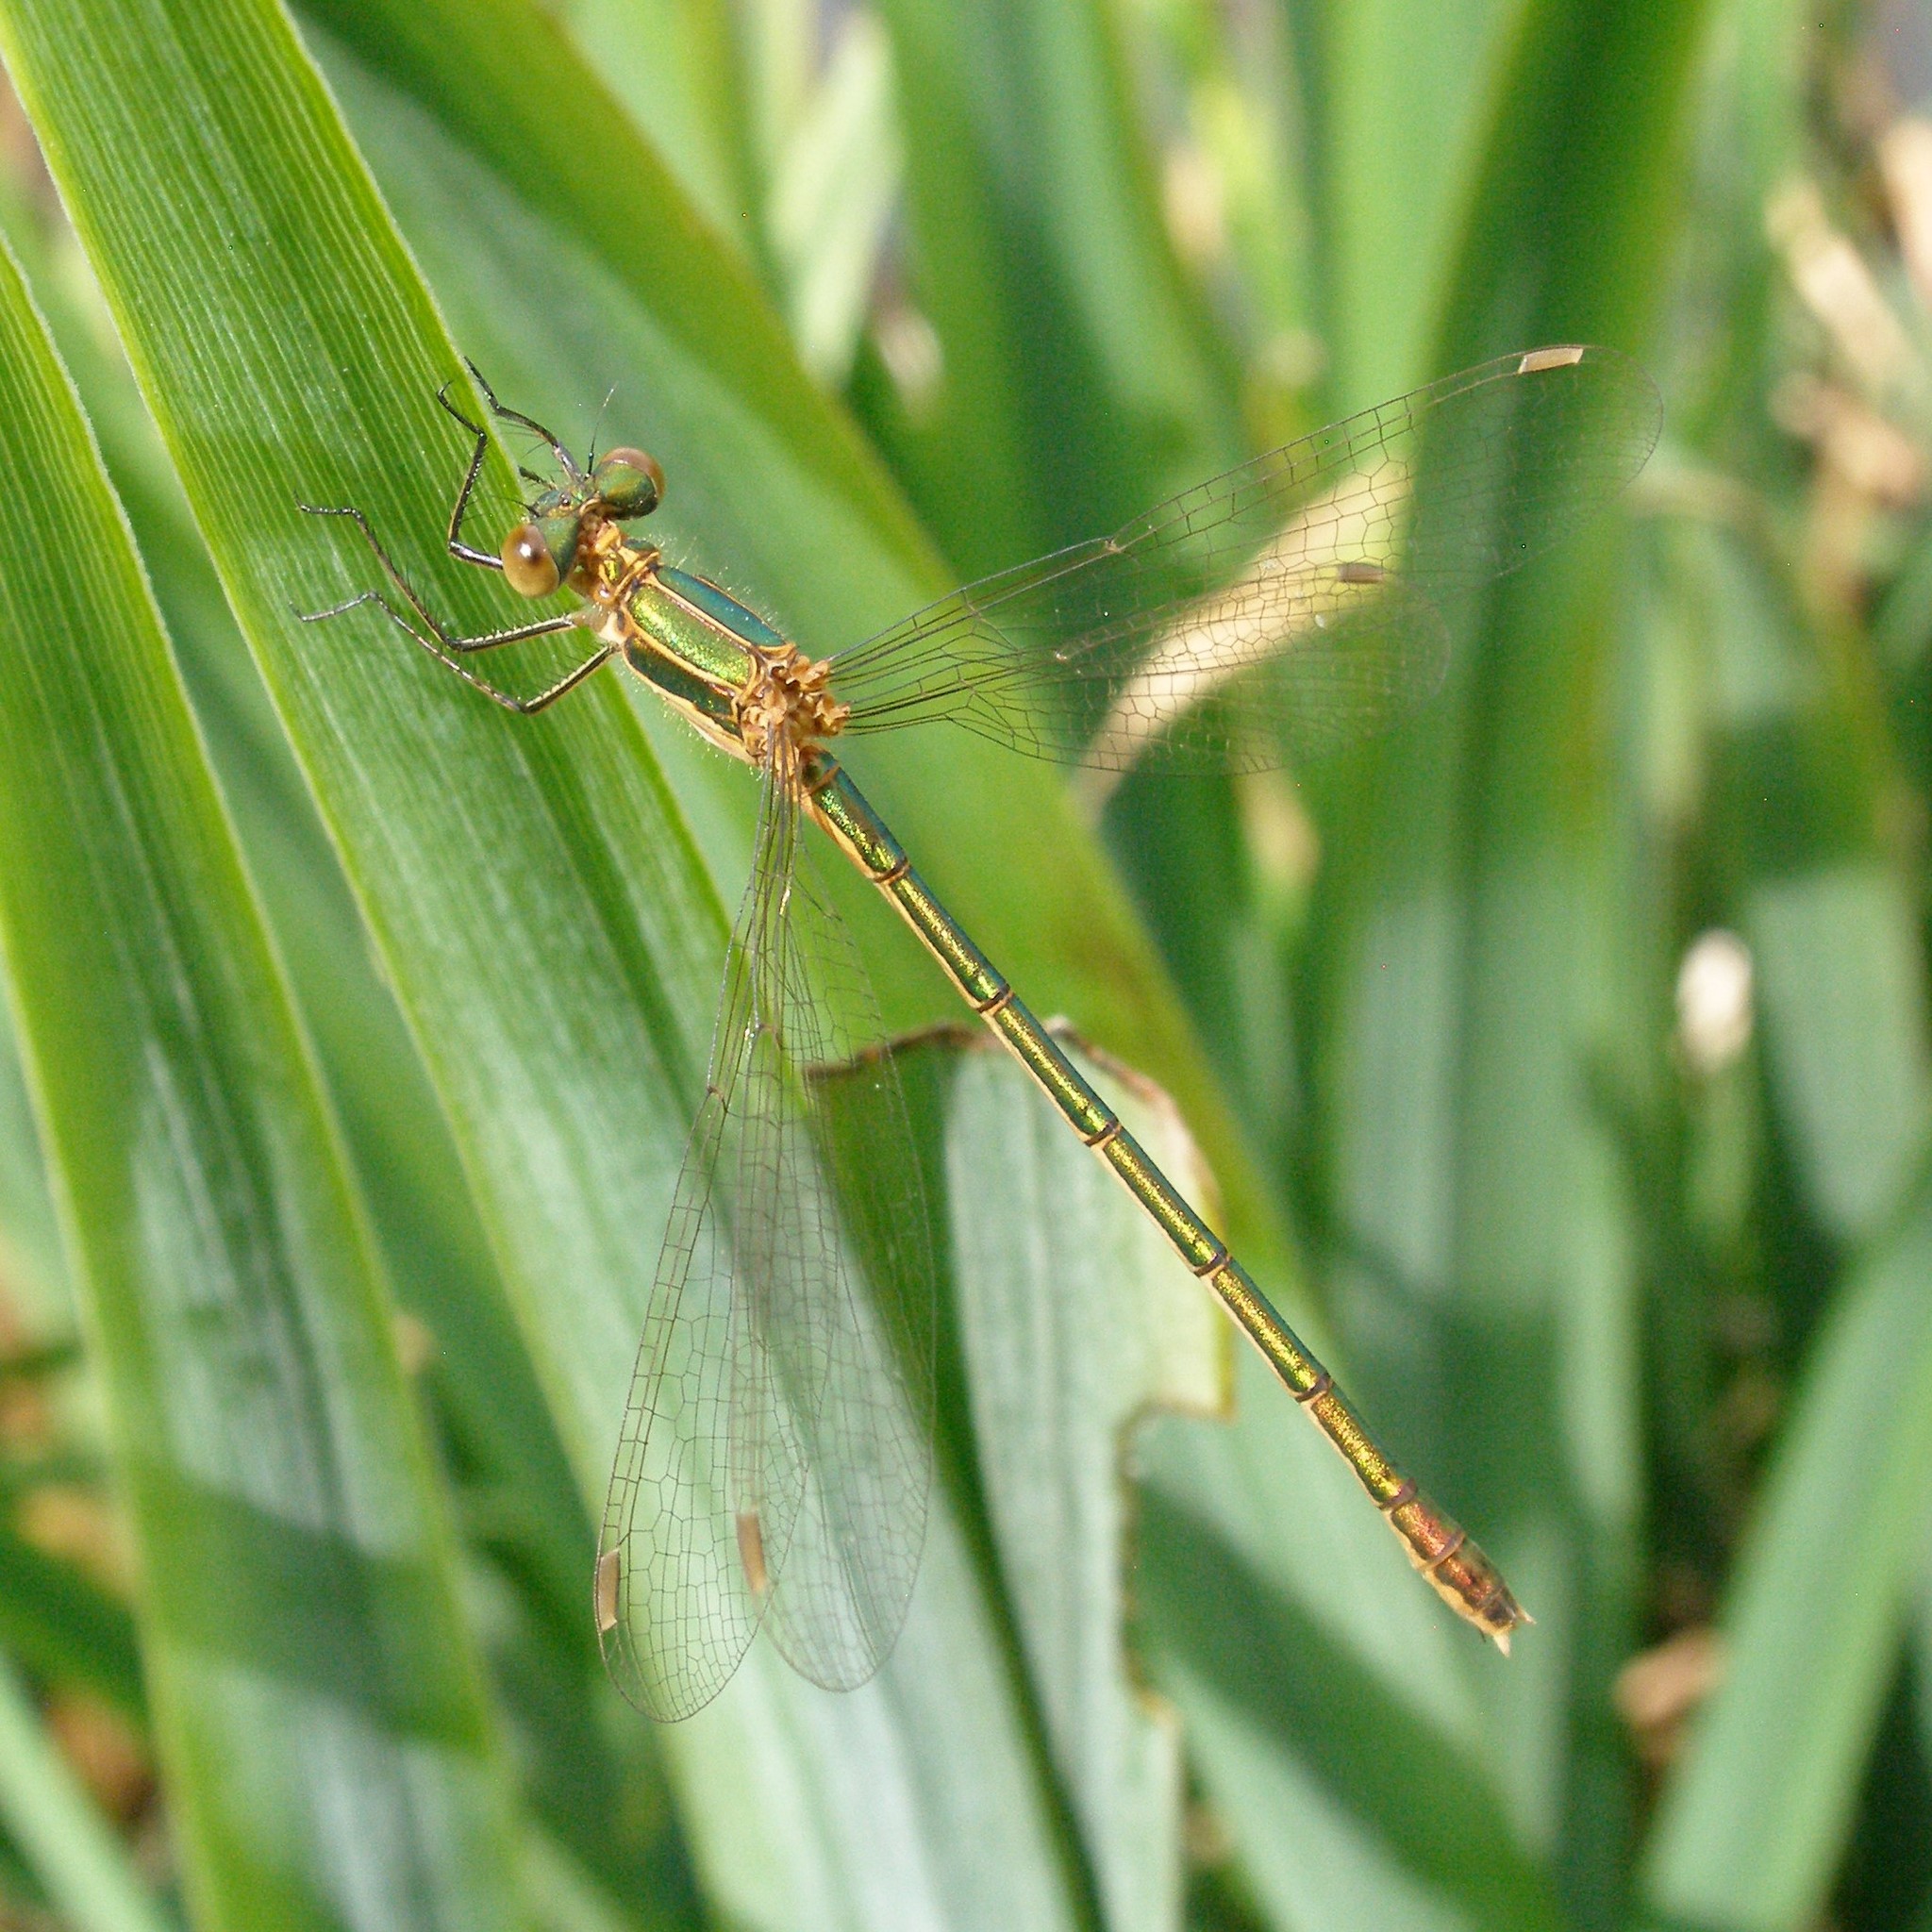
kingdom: Animalia
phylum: Arthropoda
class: Insecta
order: Odonata
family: Lestidae
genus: Lestes
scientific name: Lestes sponsa
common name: Common spreadwing
